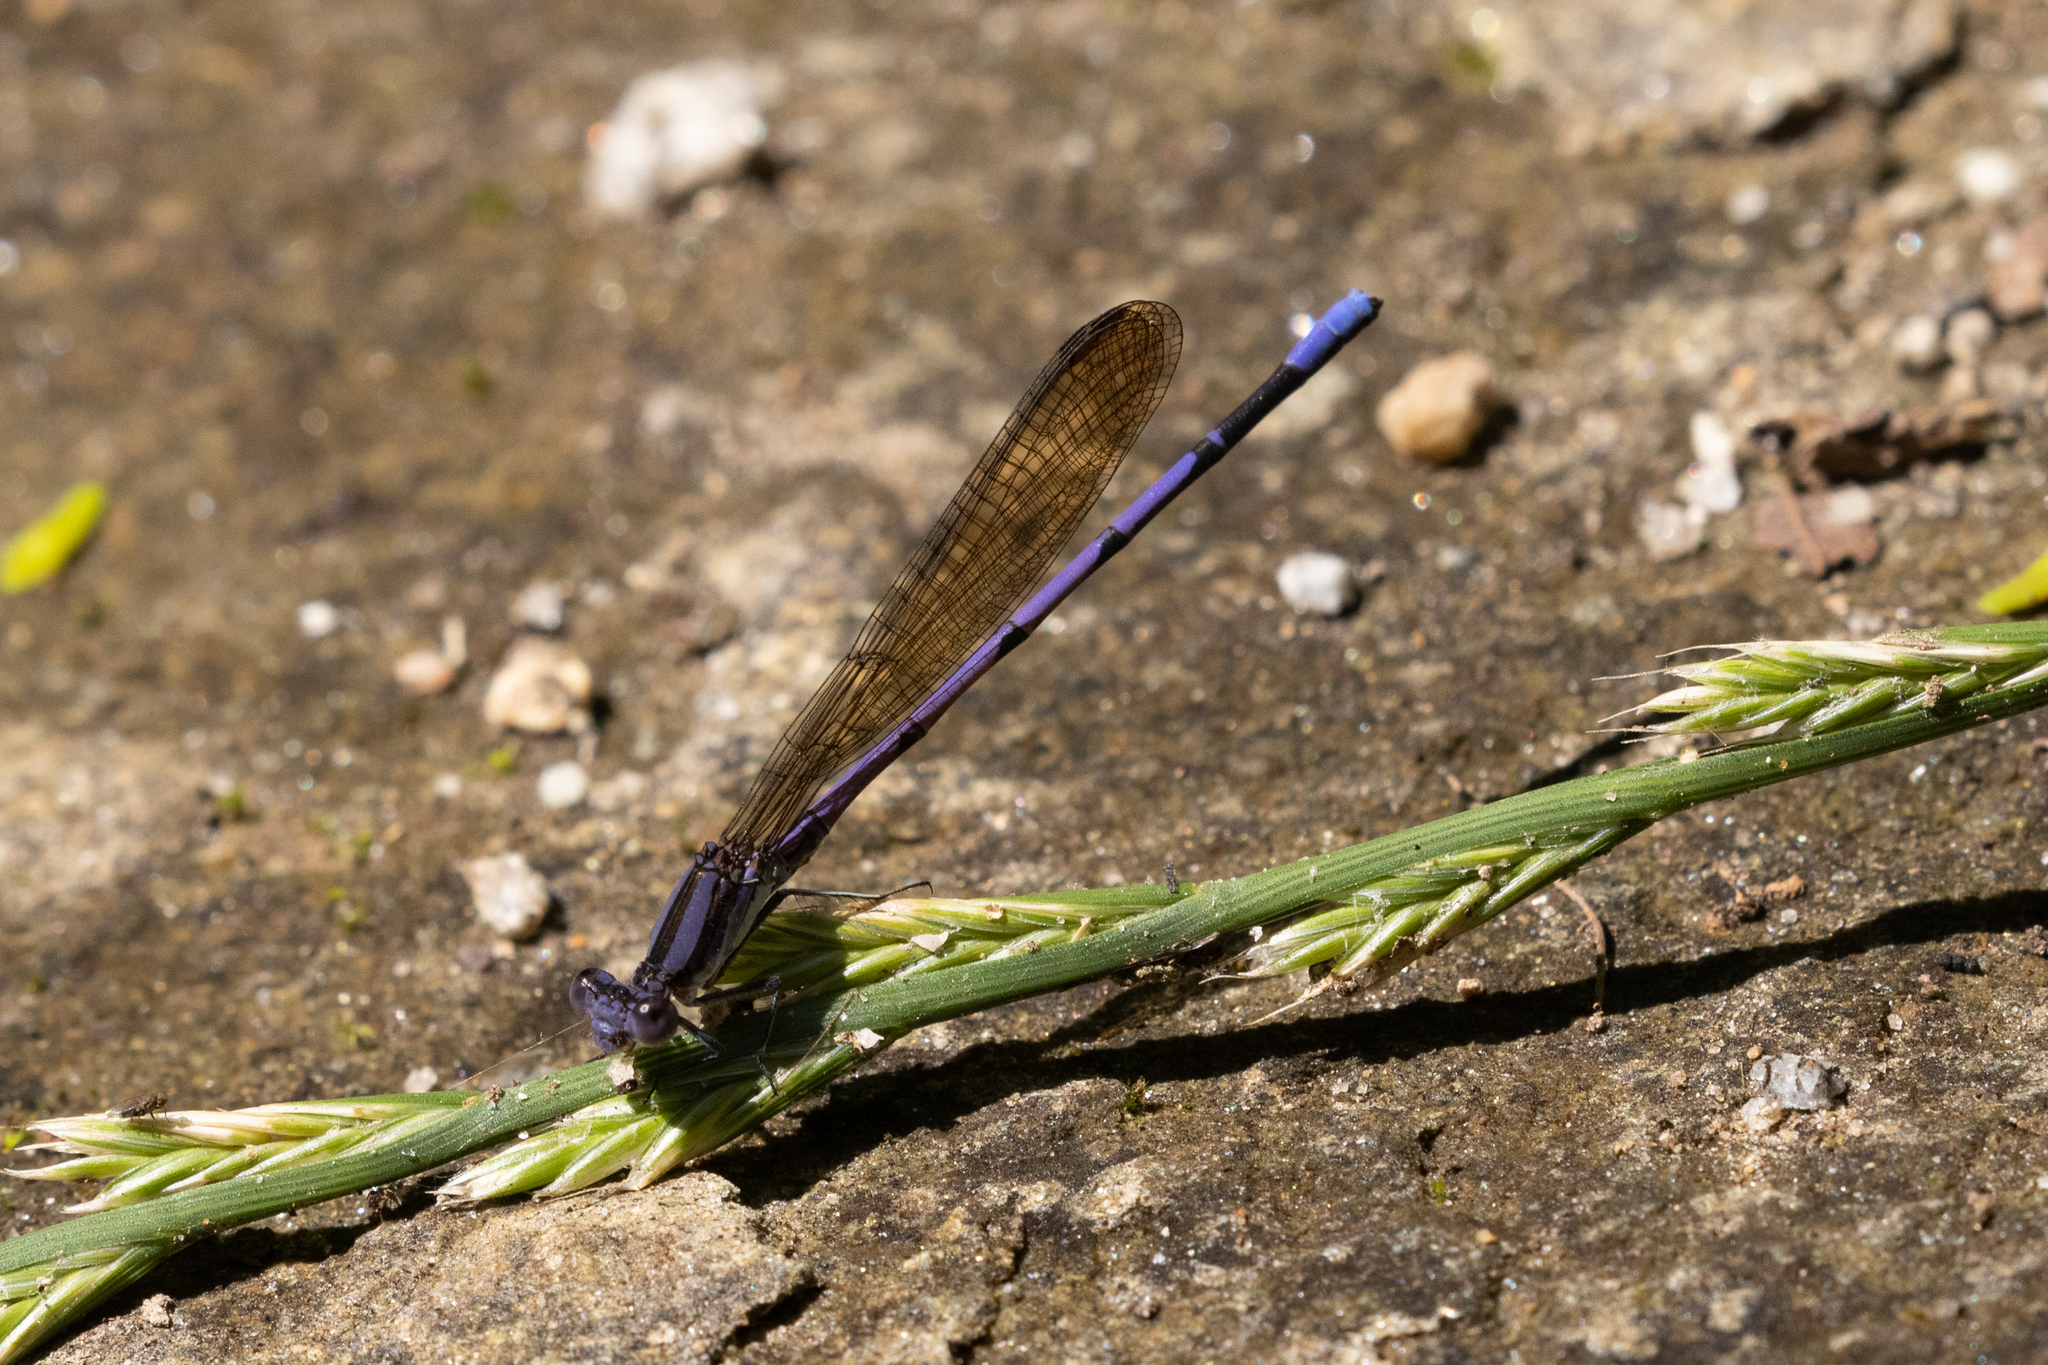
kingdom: Animalia
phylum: Arthropoda
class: Insecta
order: Odonata
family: Coenagrionidae
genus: Argia
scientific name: Argia fumipennis
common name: Variable dancer
